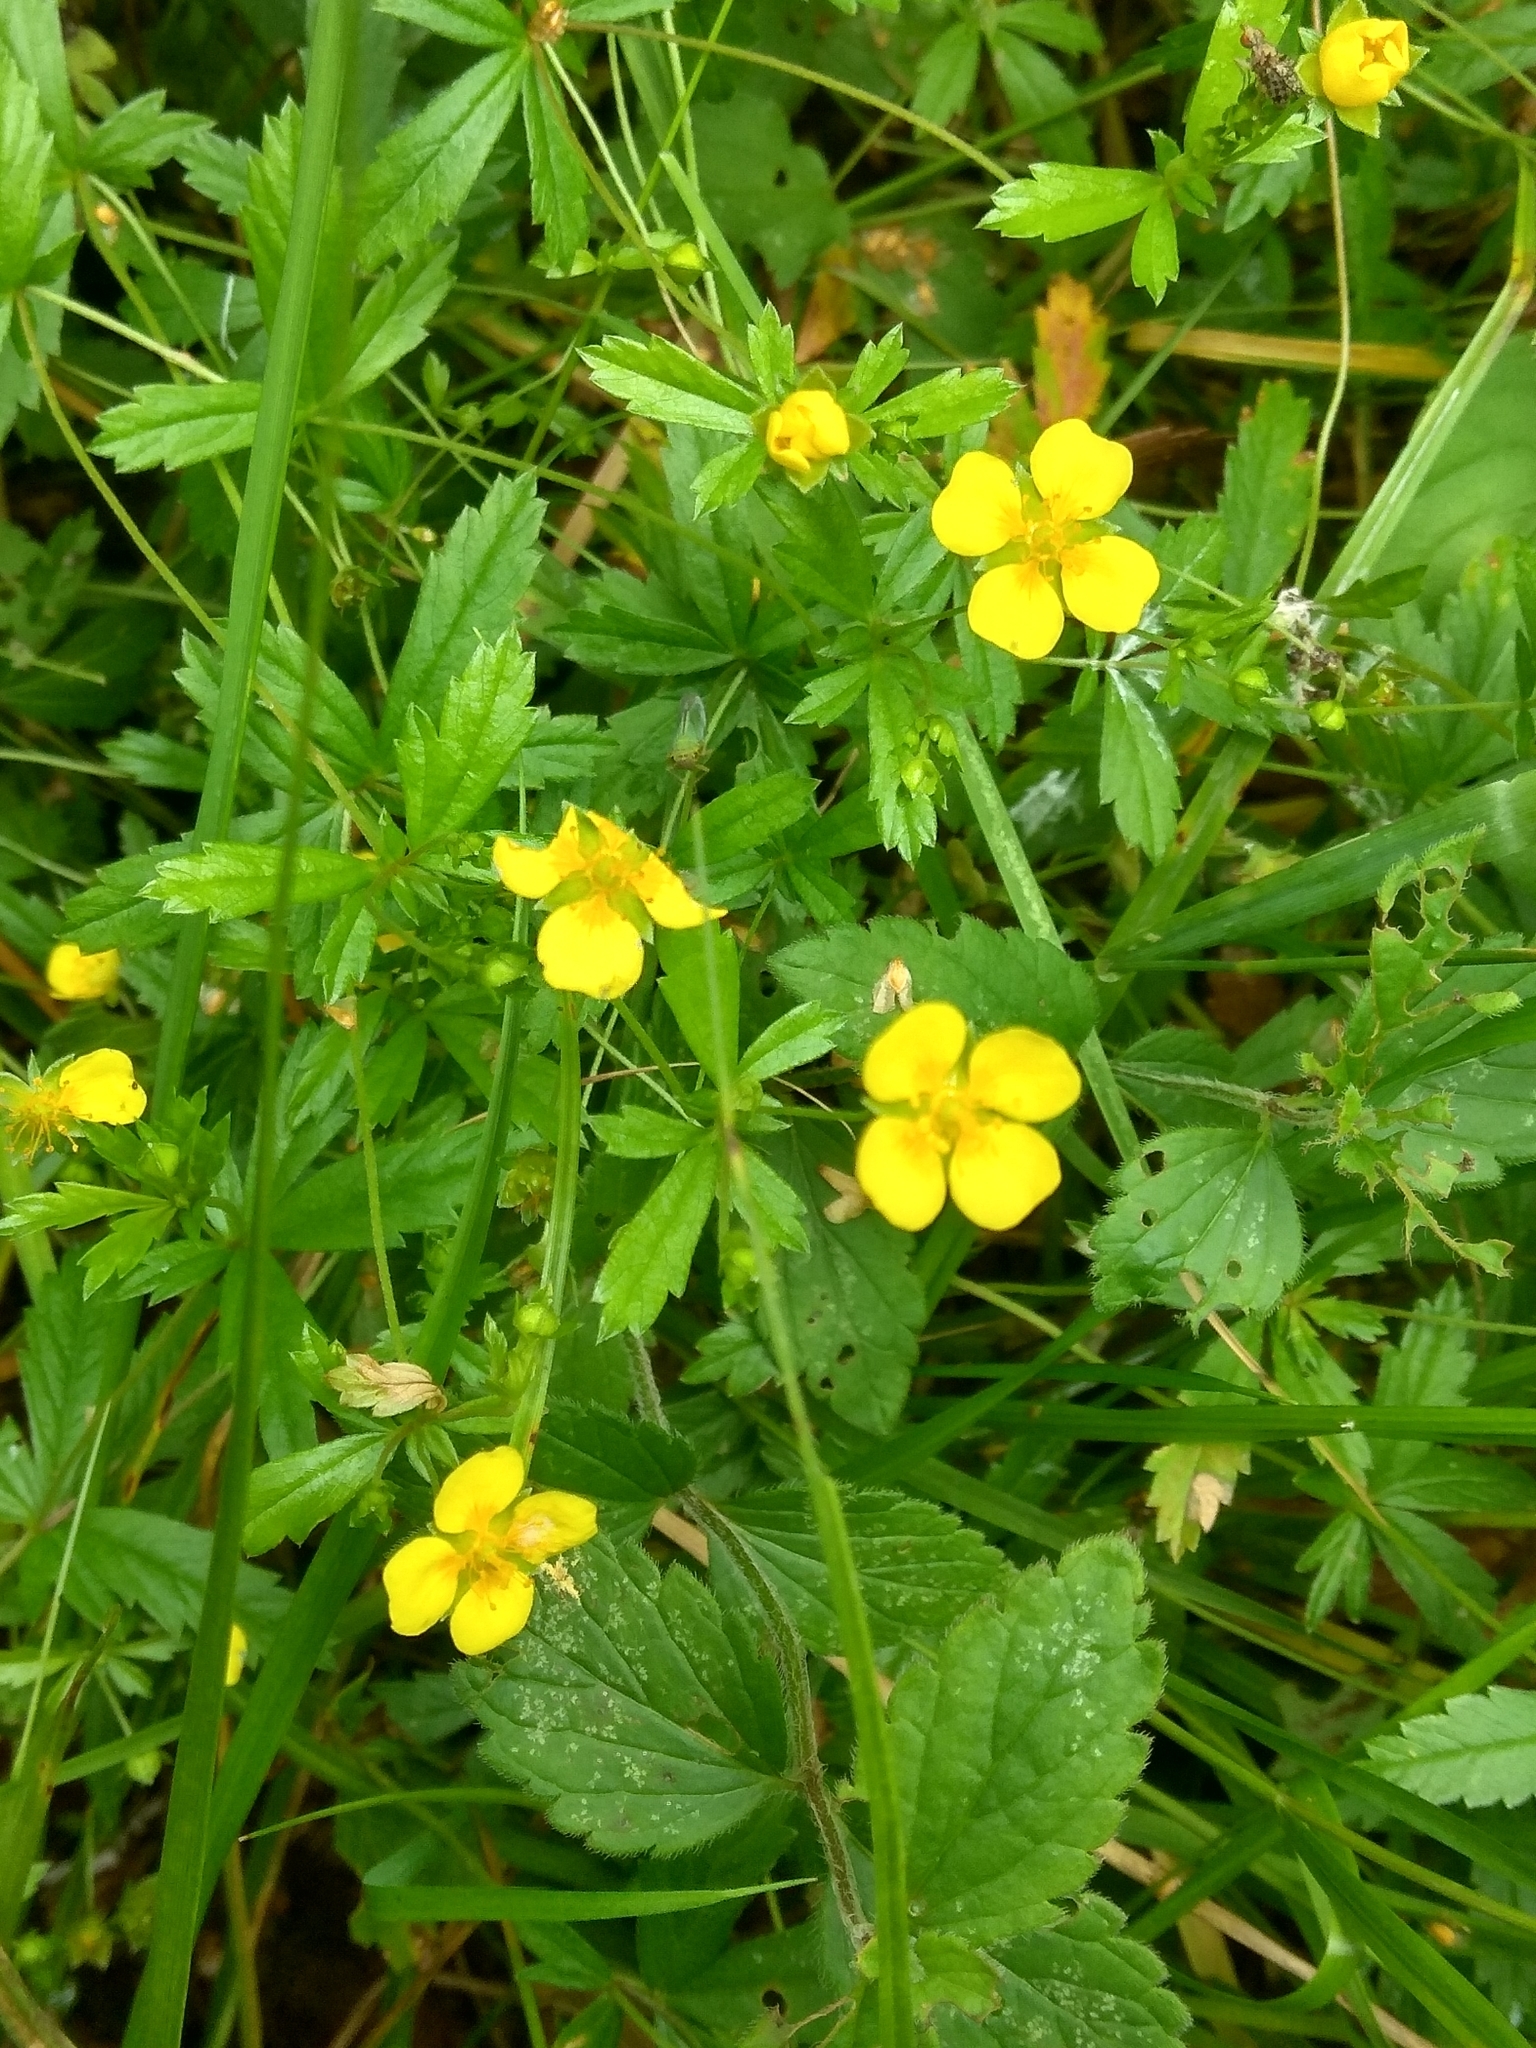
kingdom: Plantae
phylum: Tracheophyta
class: Magnoliopsida
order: Rosales
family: Rosaceae
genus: Potentilla
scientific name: Potentilla erecta
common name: Tormentil
